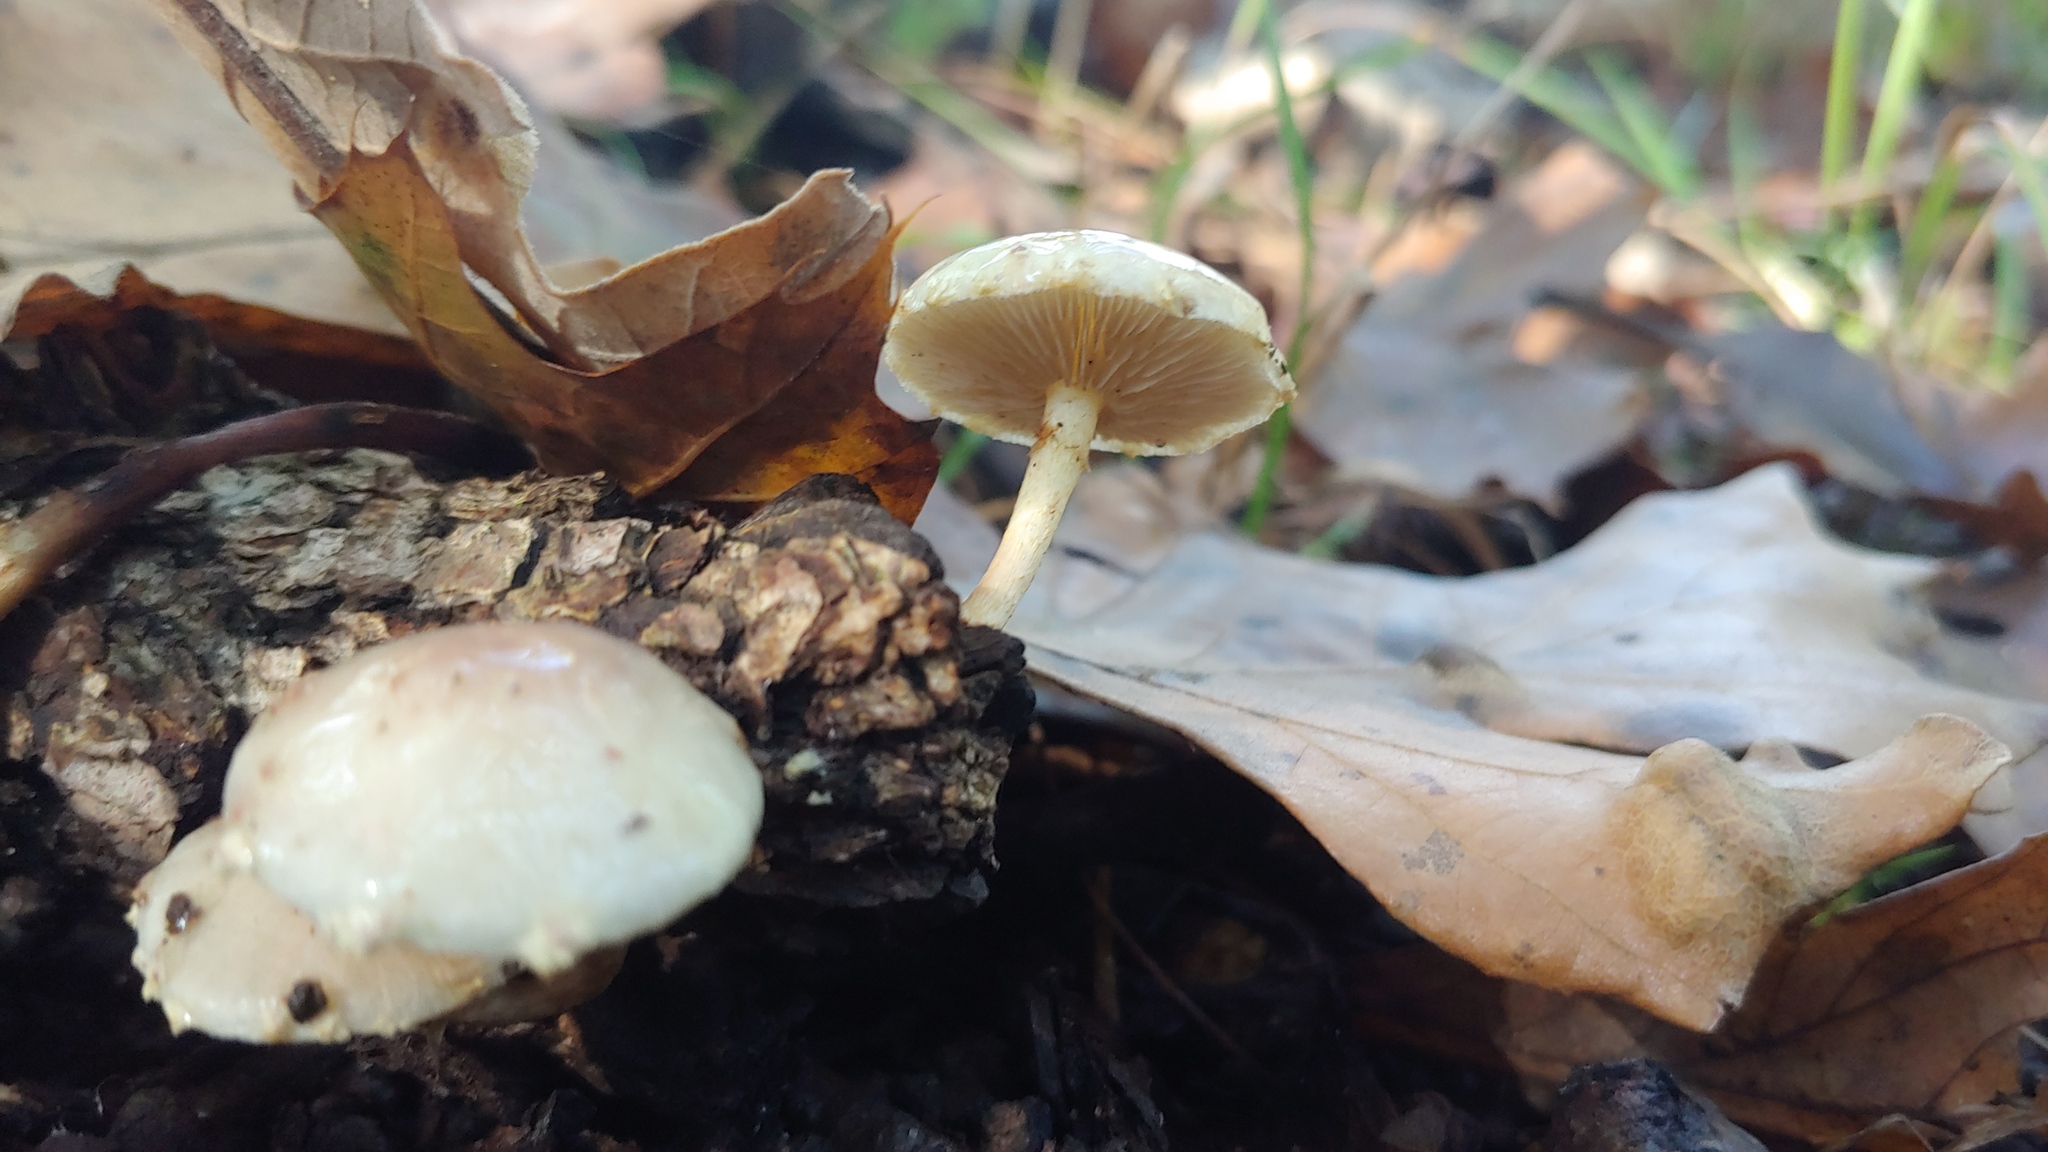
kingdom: Fungi
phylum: Basidiomycota
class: Agaricomycetes
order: Agaricales
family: Strophariaceae
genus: Pholiota
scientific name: Pholiota polychroa
